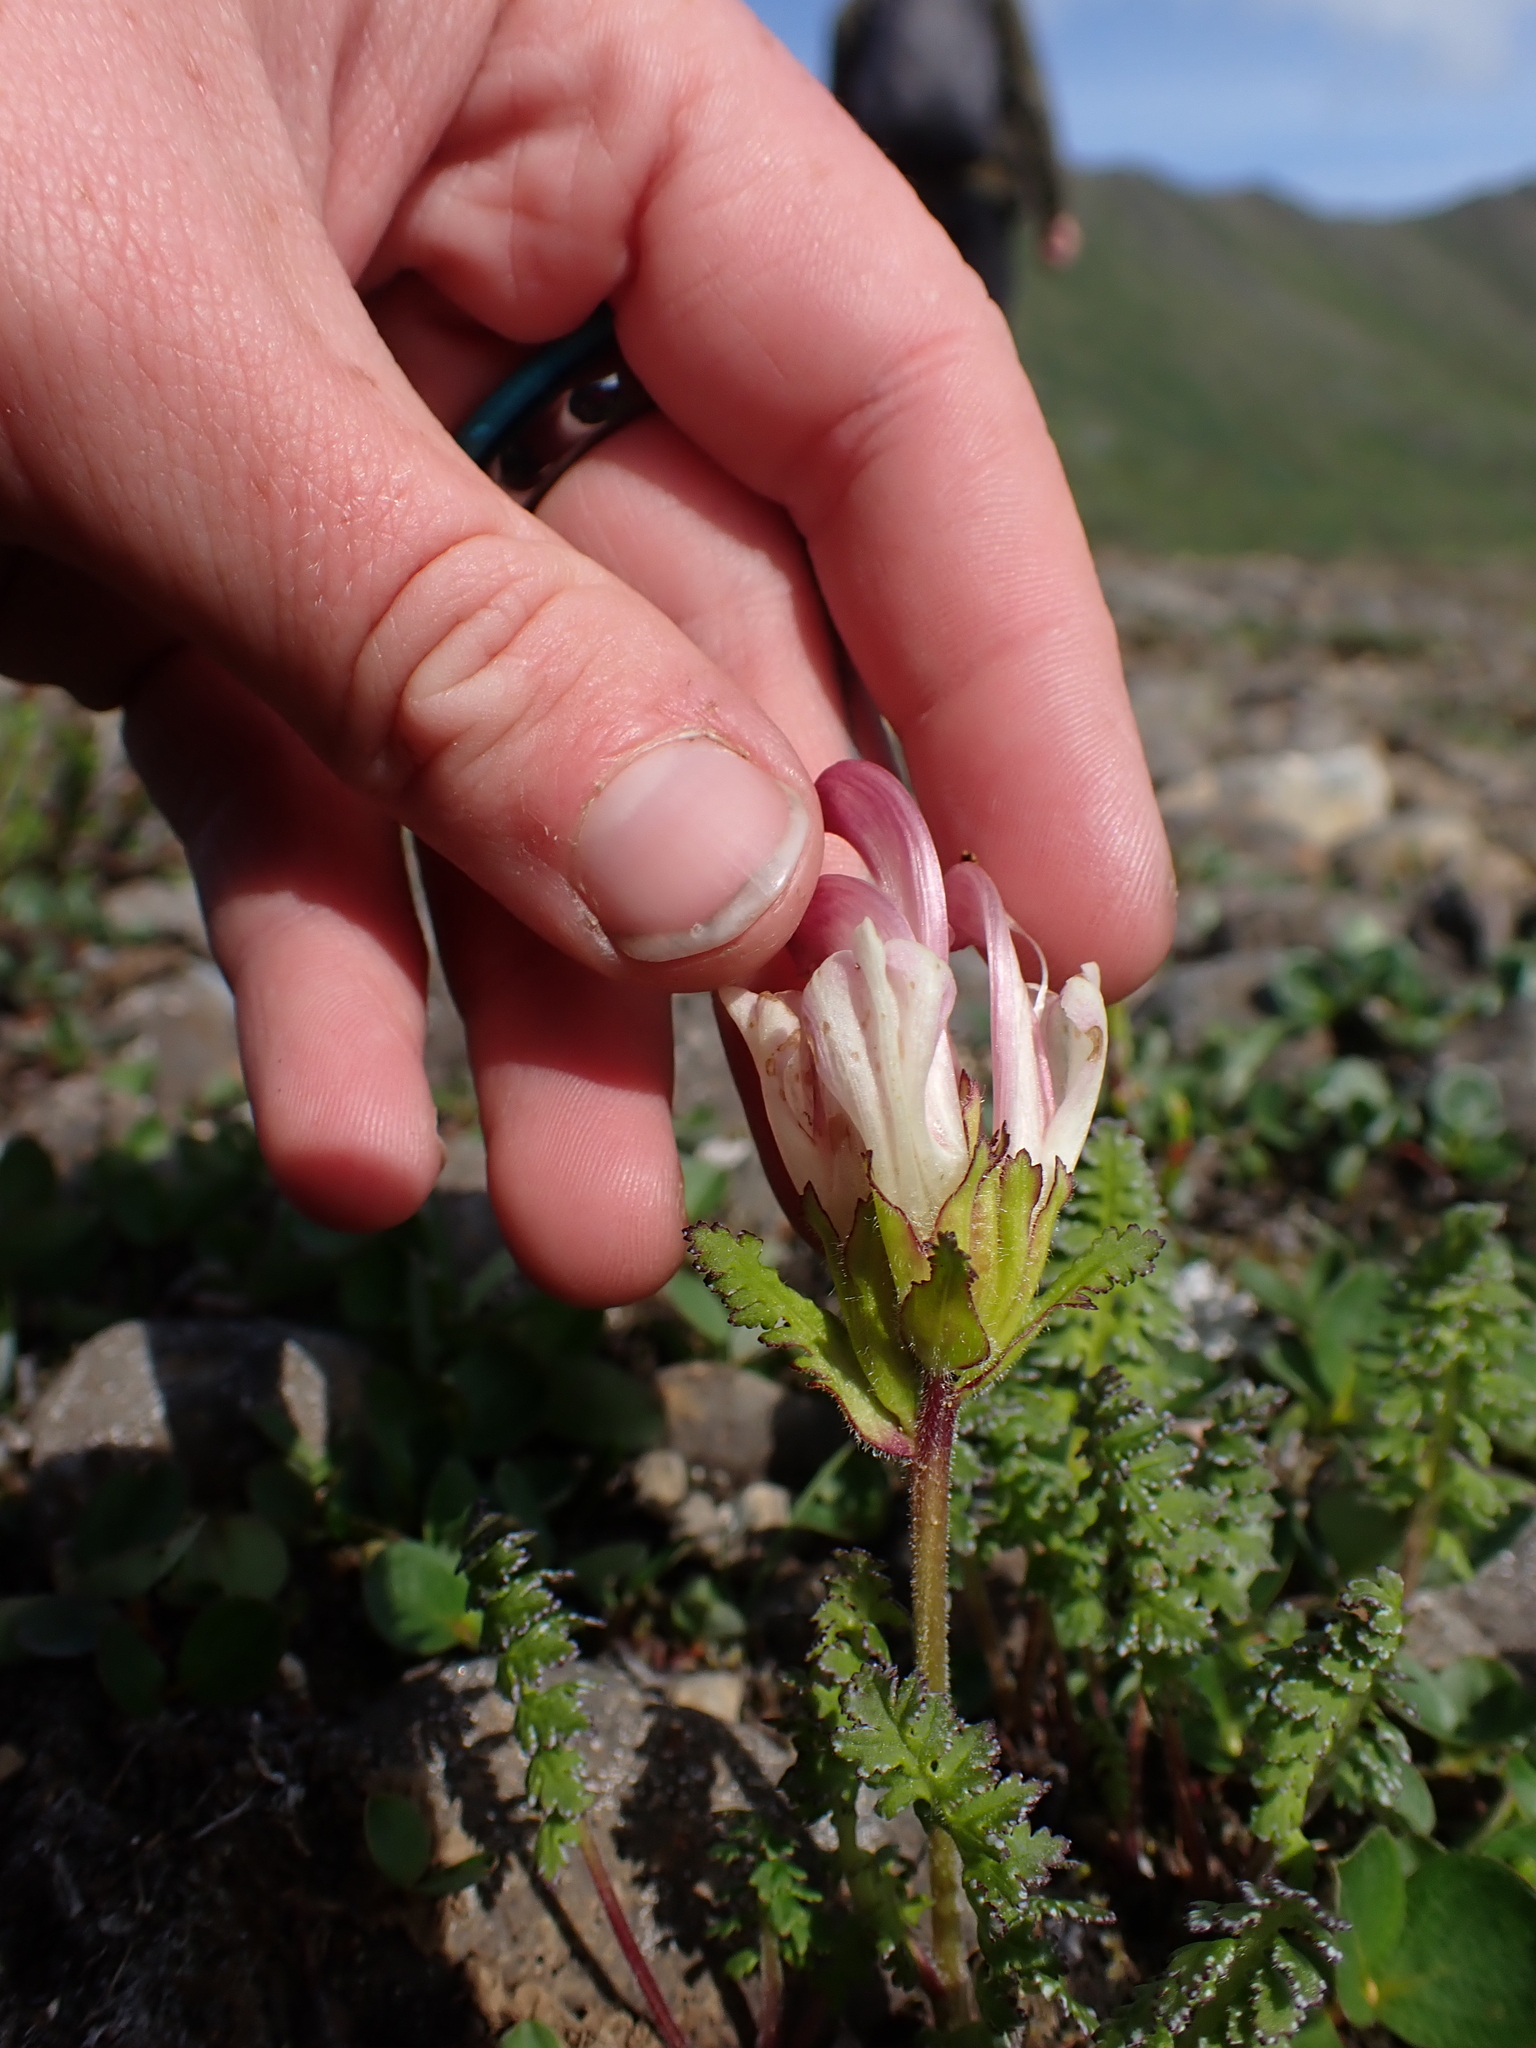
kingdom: Plantae
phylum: Tracheophyta
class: Magnoliopsida
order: Lamiales
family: Orobanchaceae
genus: Pedicularis
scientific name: Pedicularis capitata
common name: Capitate lousewort
